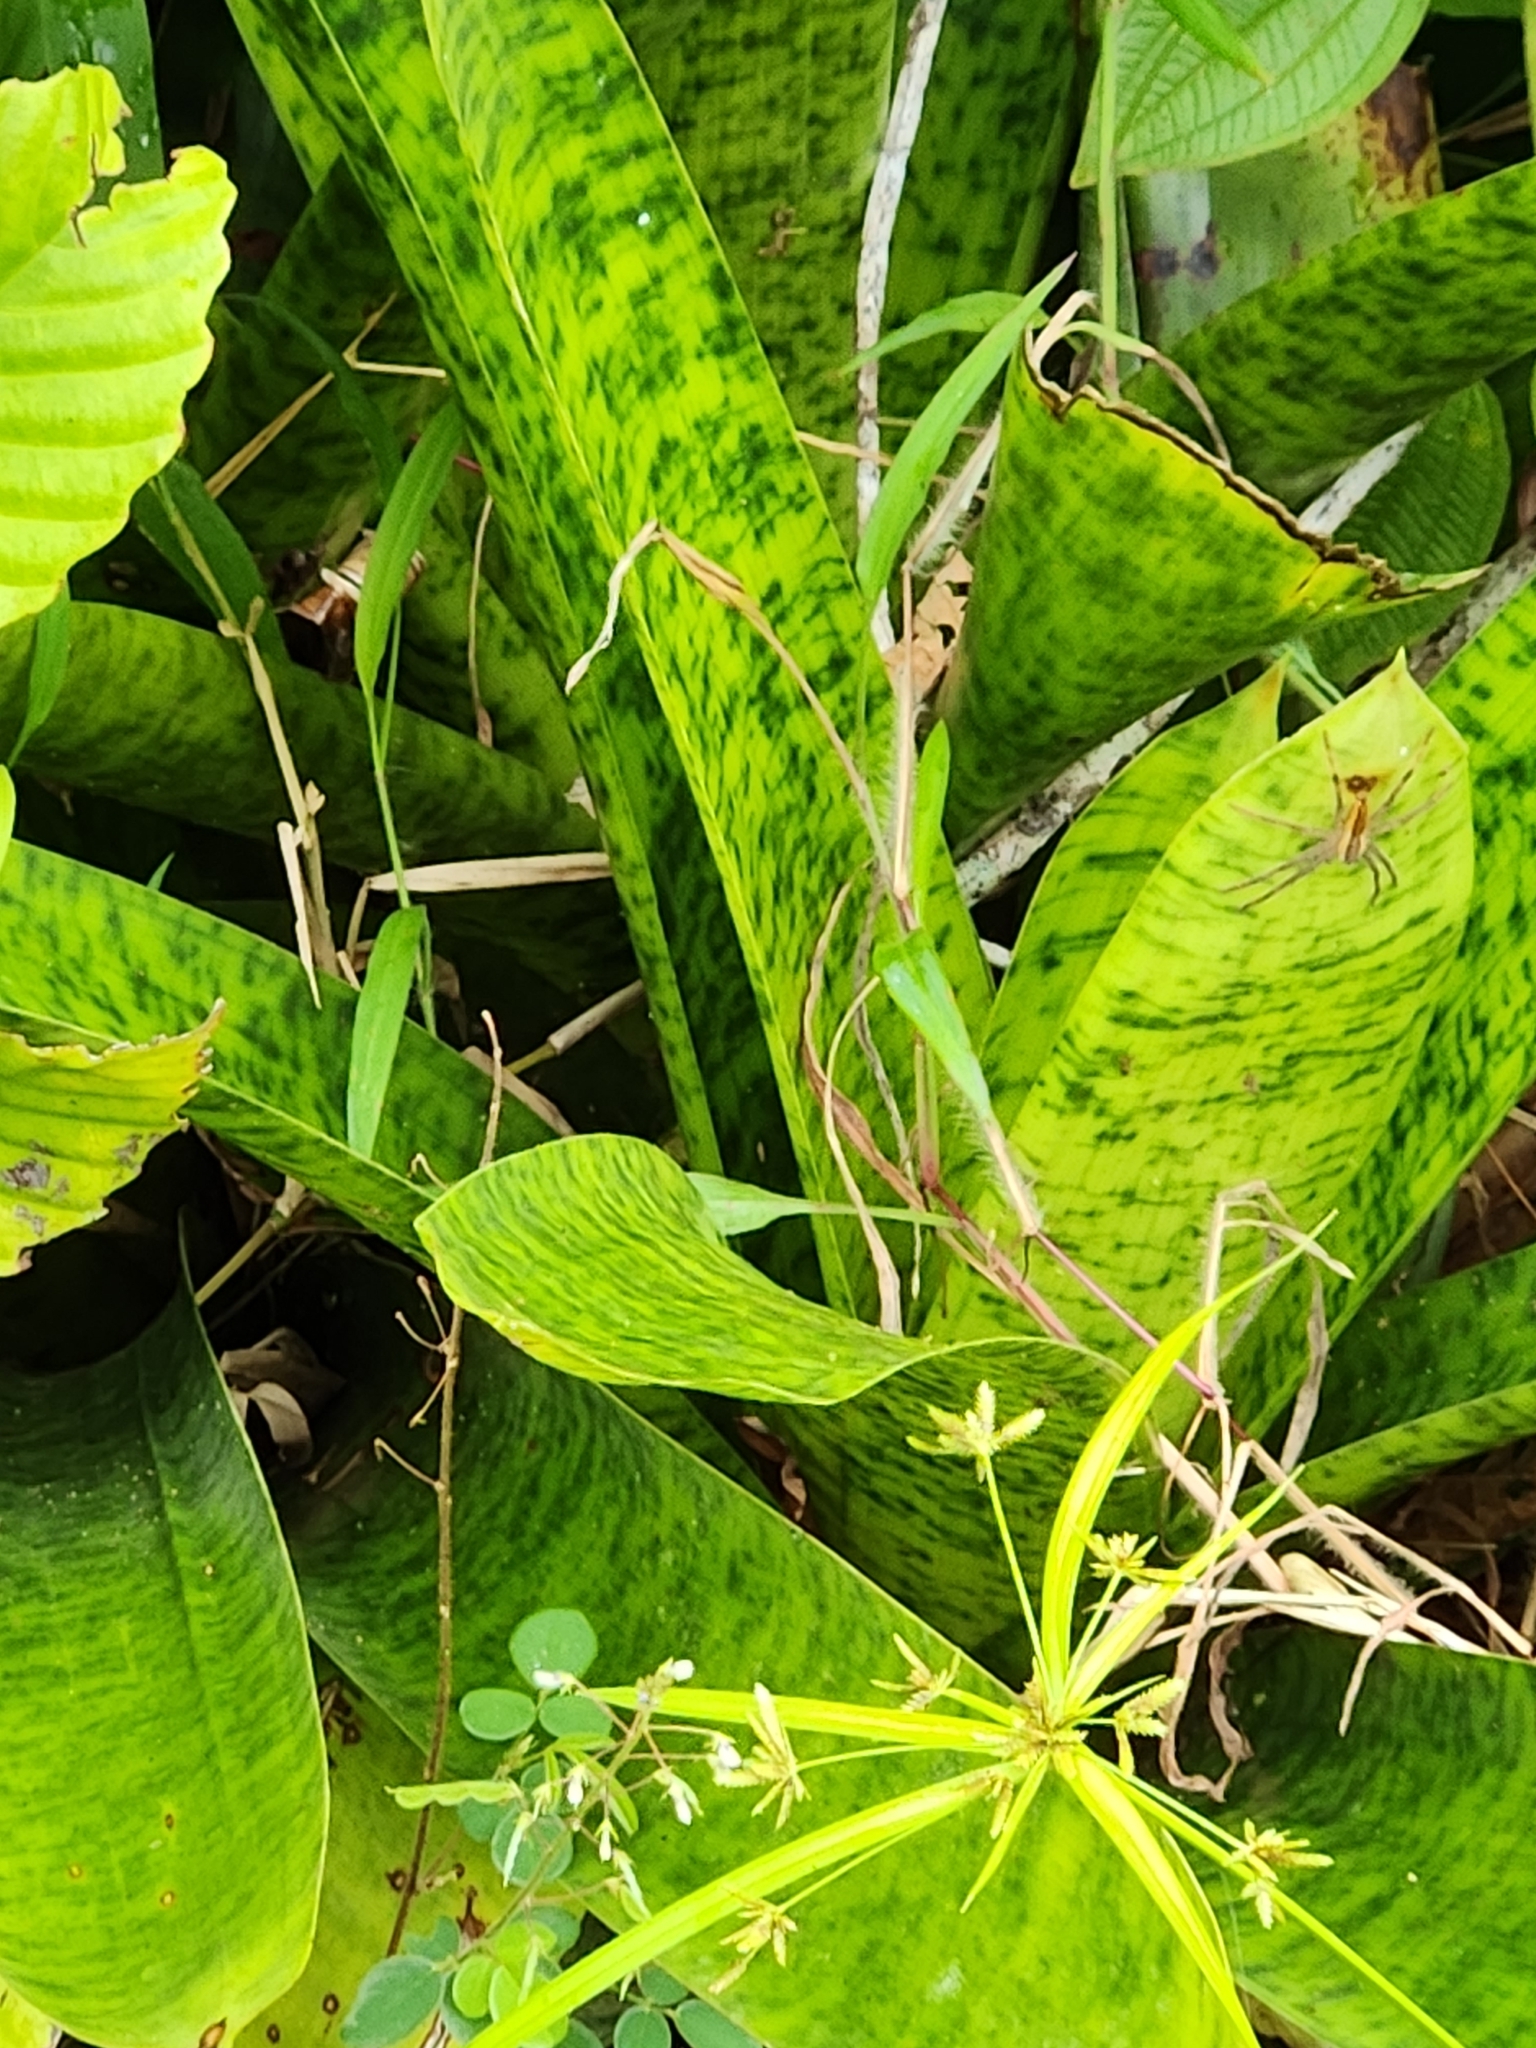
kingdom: Plantae
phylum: Tracheophyta
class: Liliopsida
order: Poales
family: Bromeliaceae
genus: Werauhia
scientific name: Werauhia kupperiana
